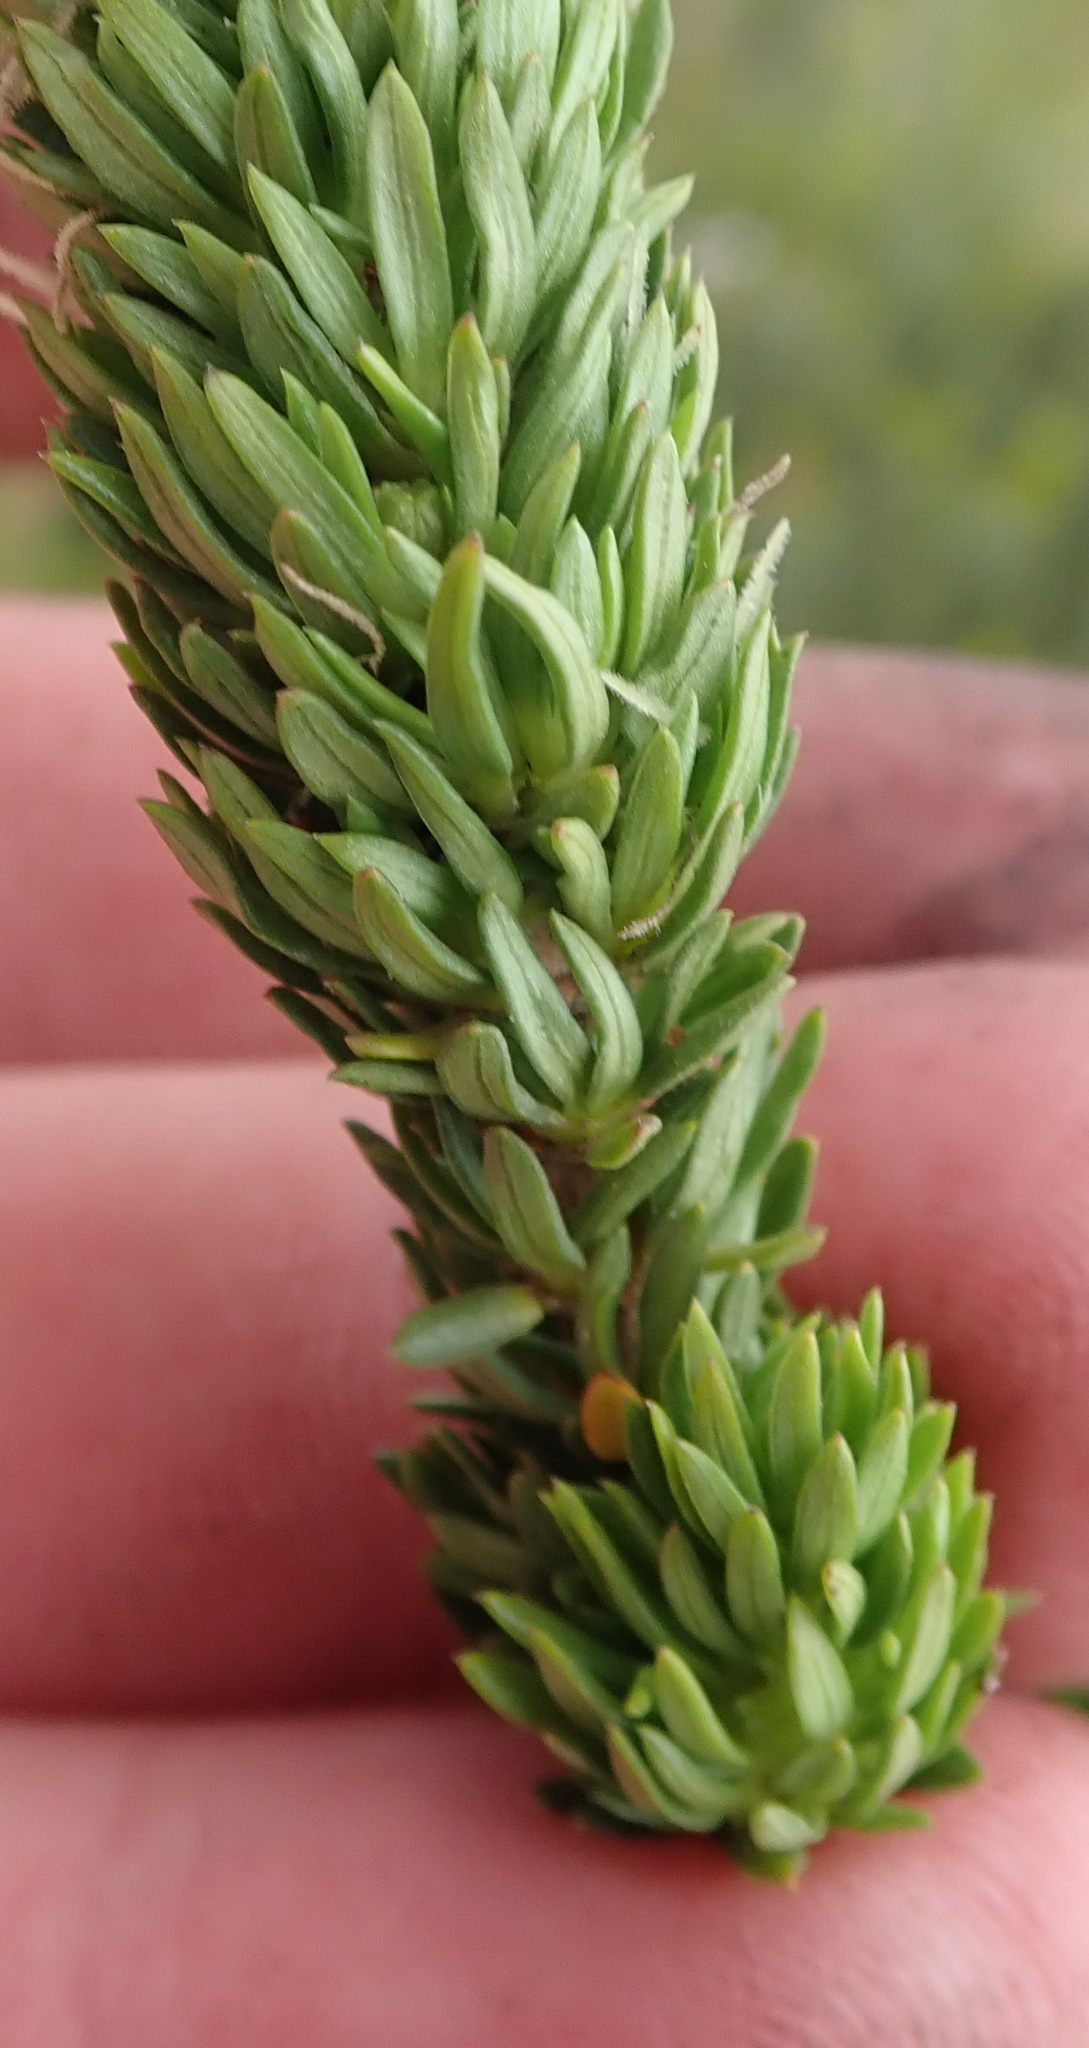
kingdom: Plantae
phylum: Tracheophyta
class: Magnoliopsida
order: Gentianales
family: Rubiaceae
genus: Anthospermum
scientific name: Anthospermum aethiopicum
